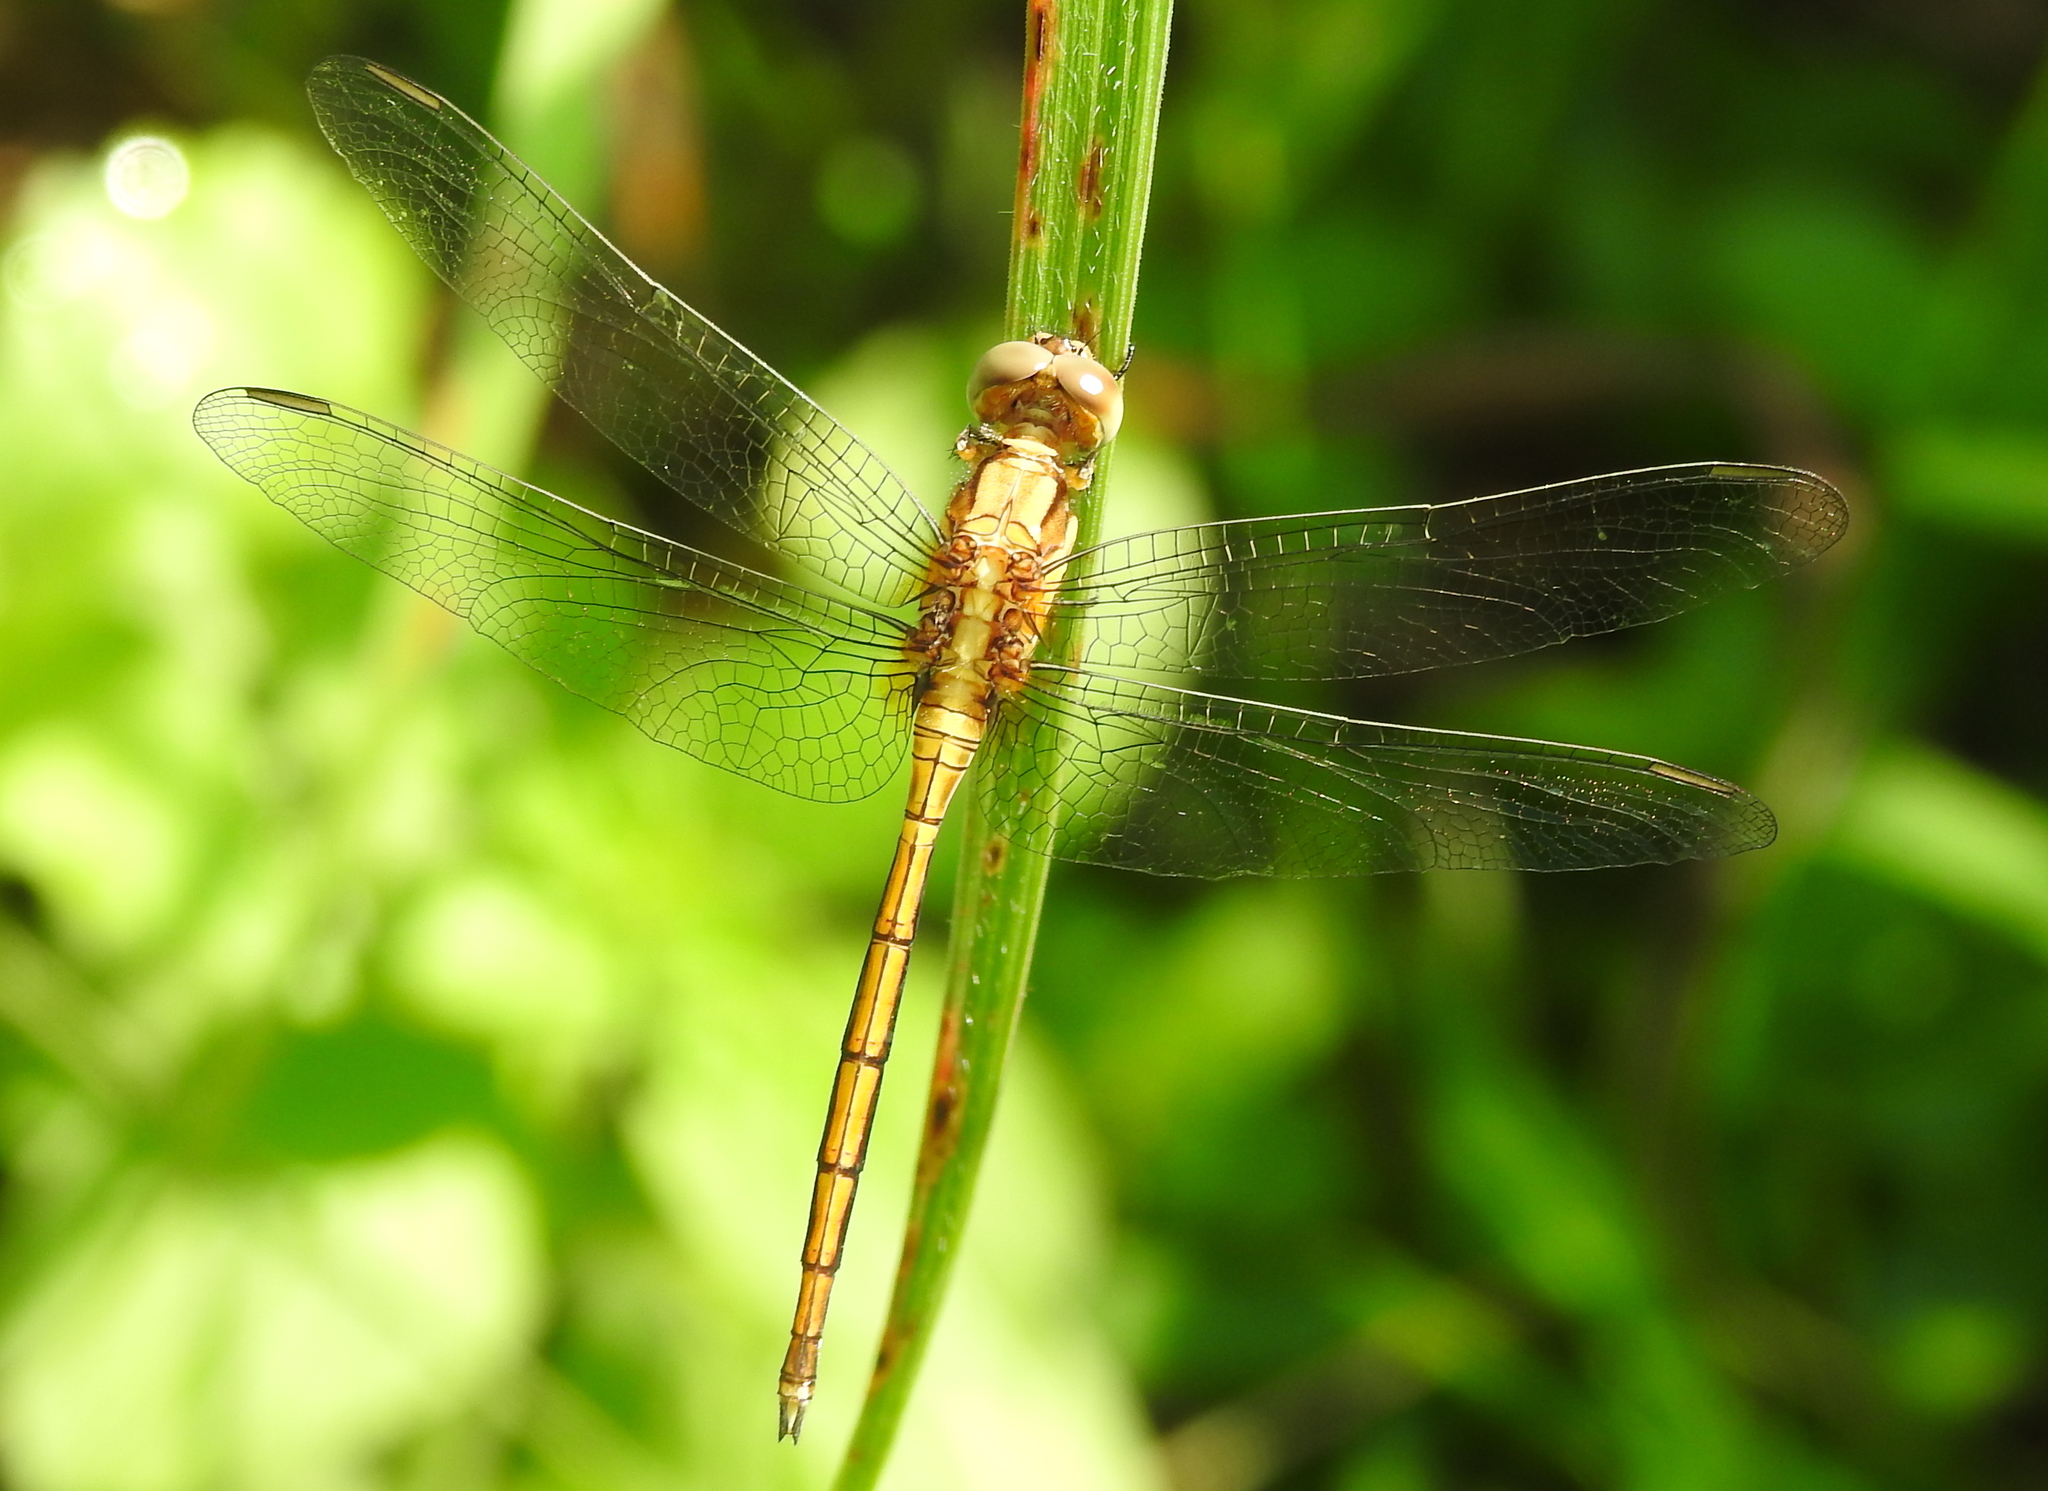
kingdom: Animalia
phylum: Arthropoda
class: Insecta
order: Odonata
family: Libellulidae
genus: Orthetrum
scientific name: Orthetrum luzonicum
